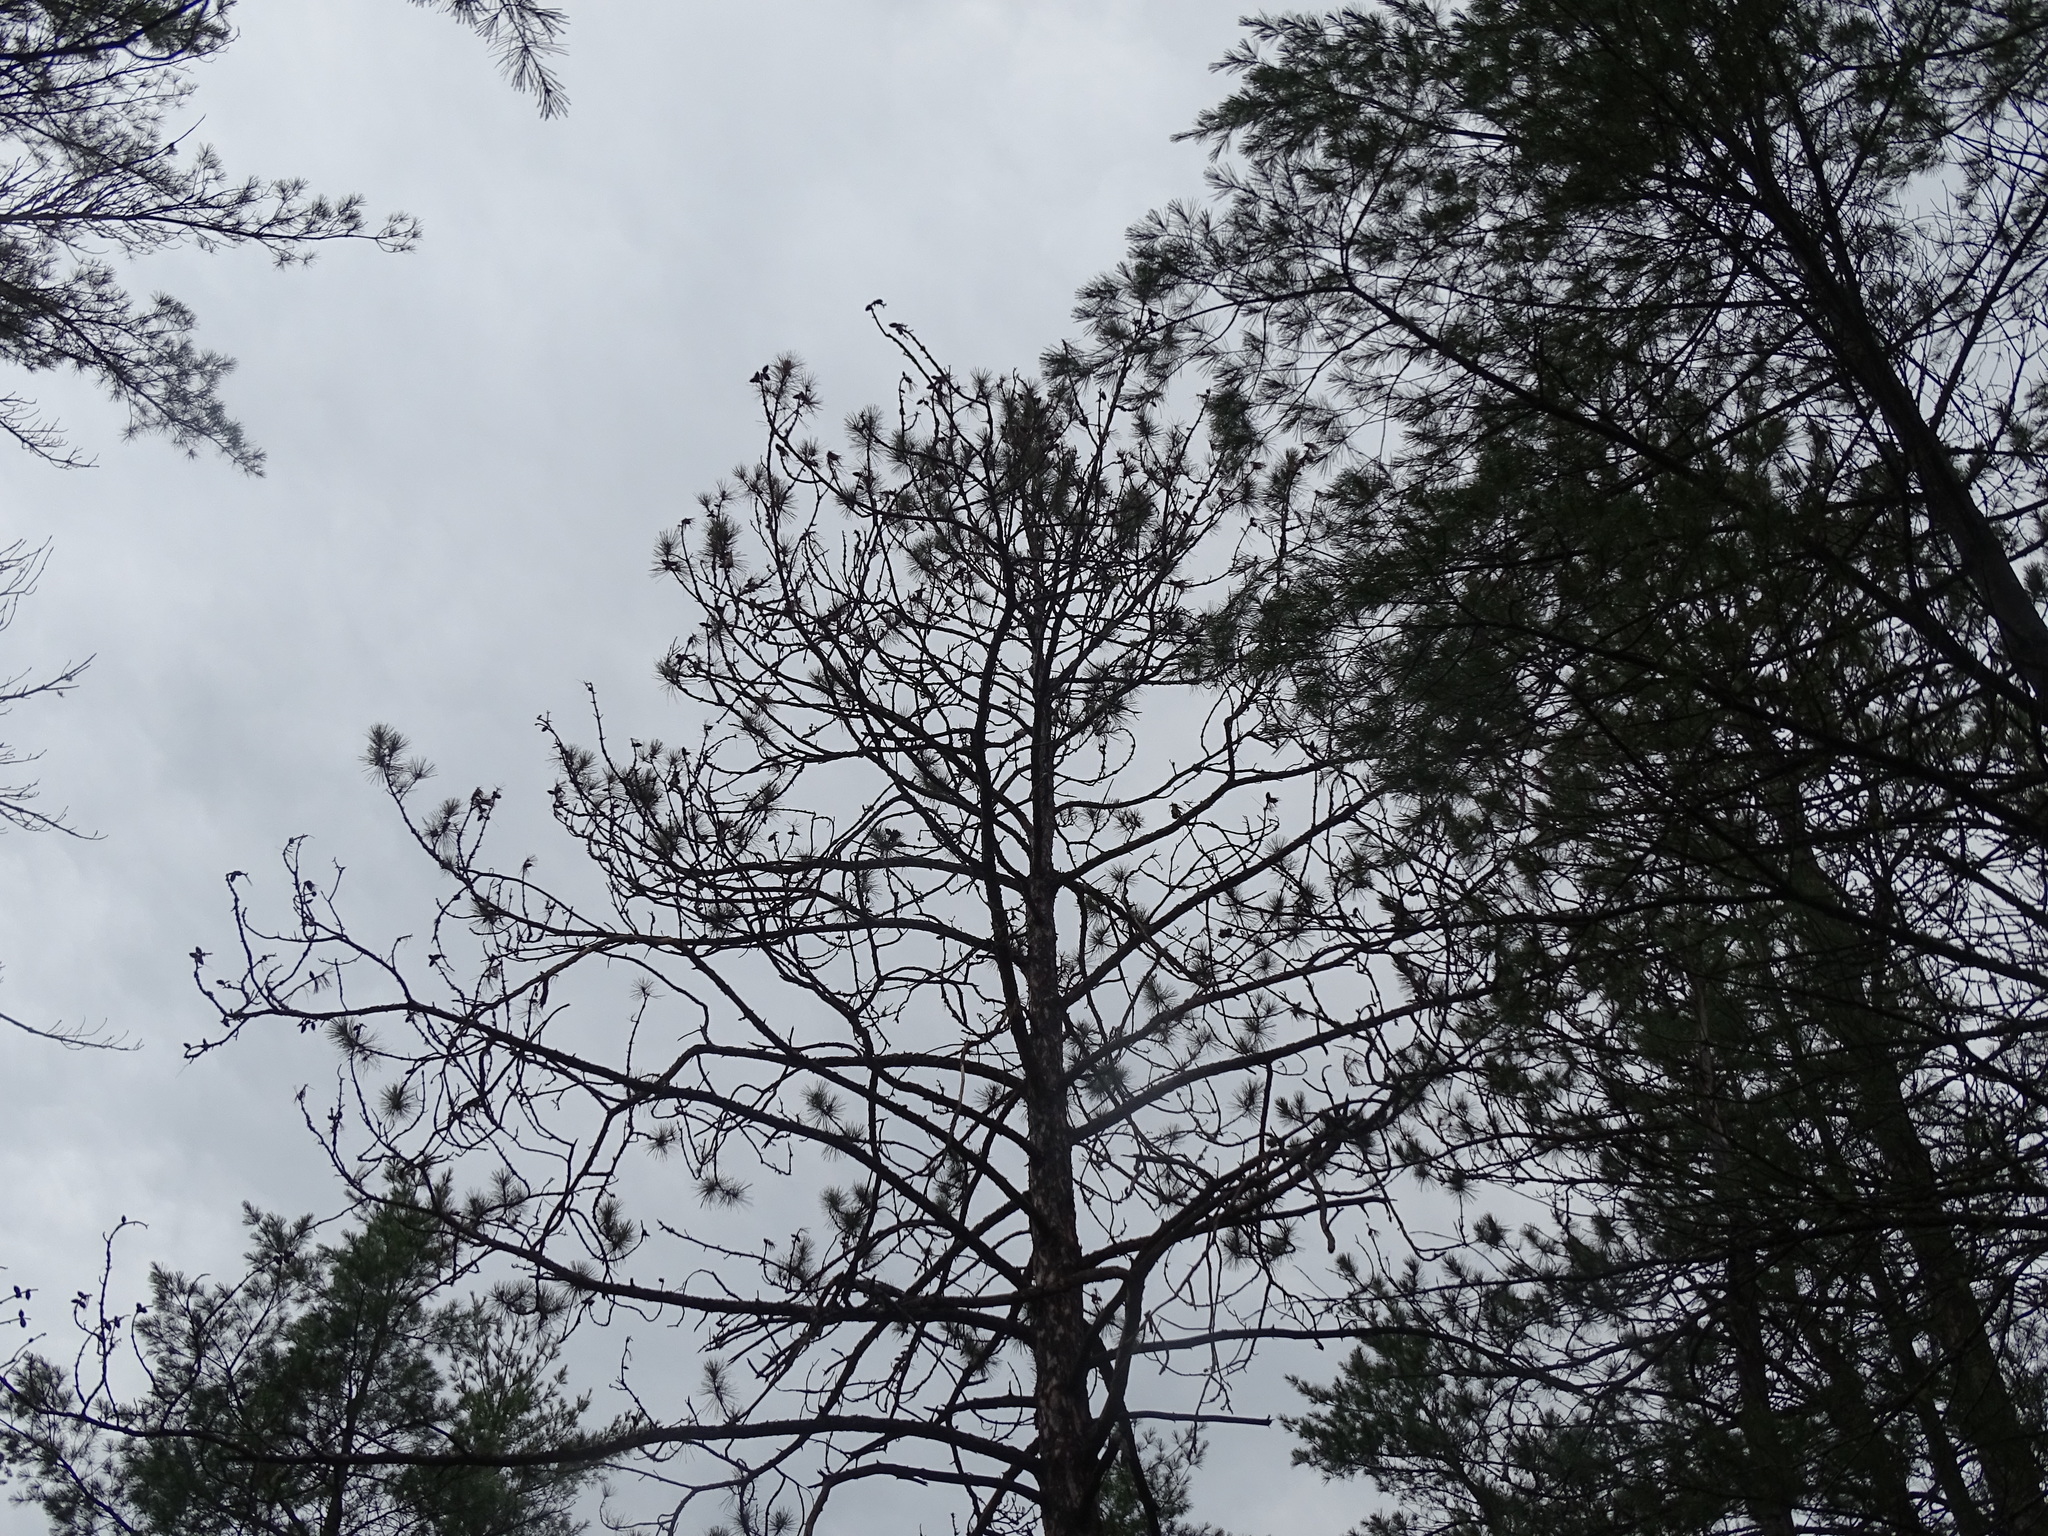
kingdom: Plantae
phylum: Tracheophyta
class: Pinopsida
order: Pinales
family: Pinaceae
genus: Pinus
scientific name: Pinus resinosa
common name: Norway pine
